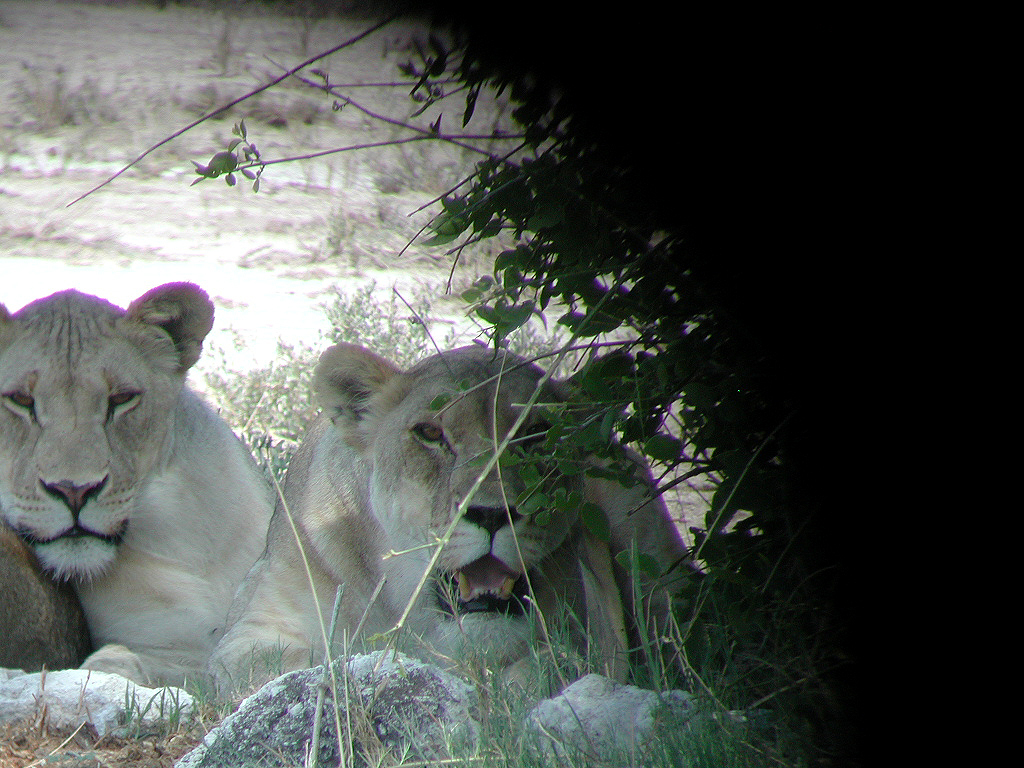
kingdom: Animalia
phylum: Chordata
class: Mammalia
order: Carnivora
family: Felidae
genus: Panthera
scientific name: Panthera leo
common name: Lion
